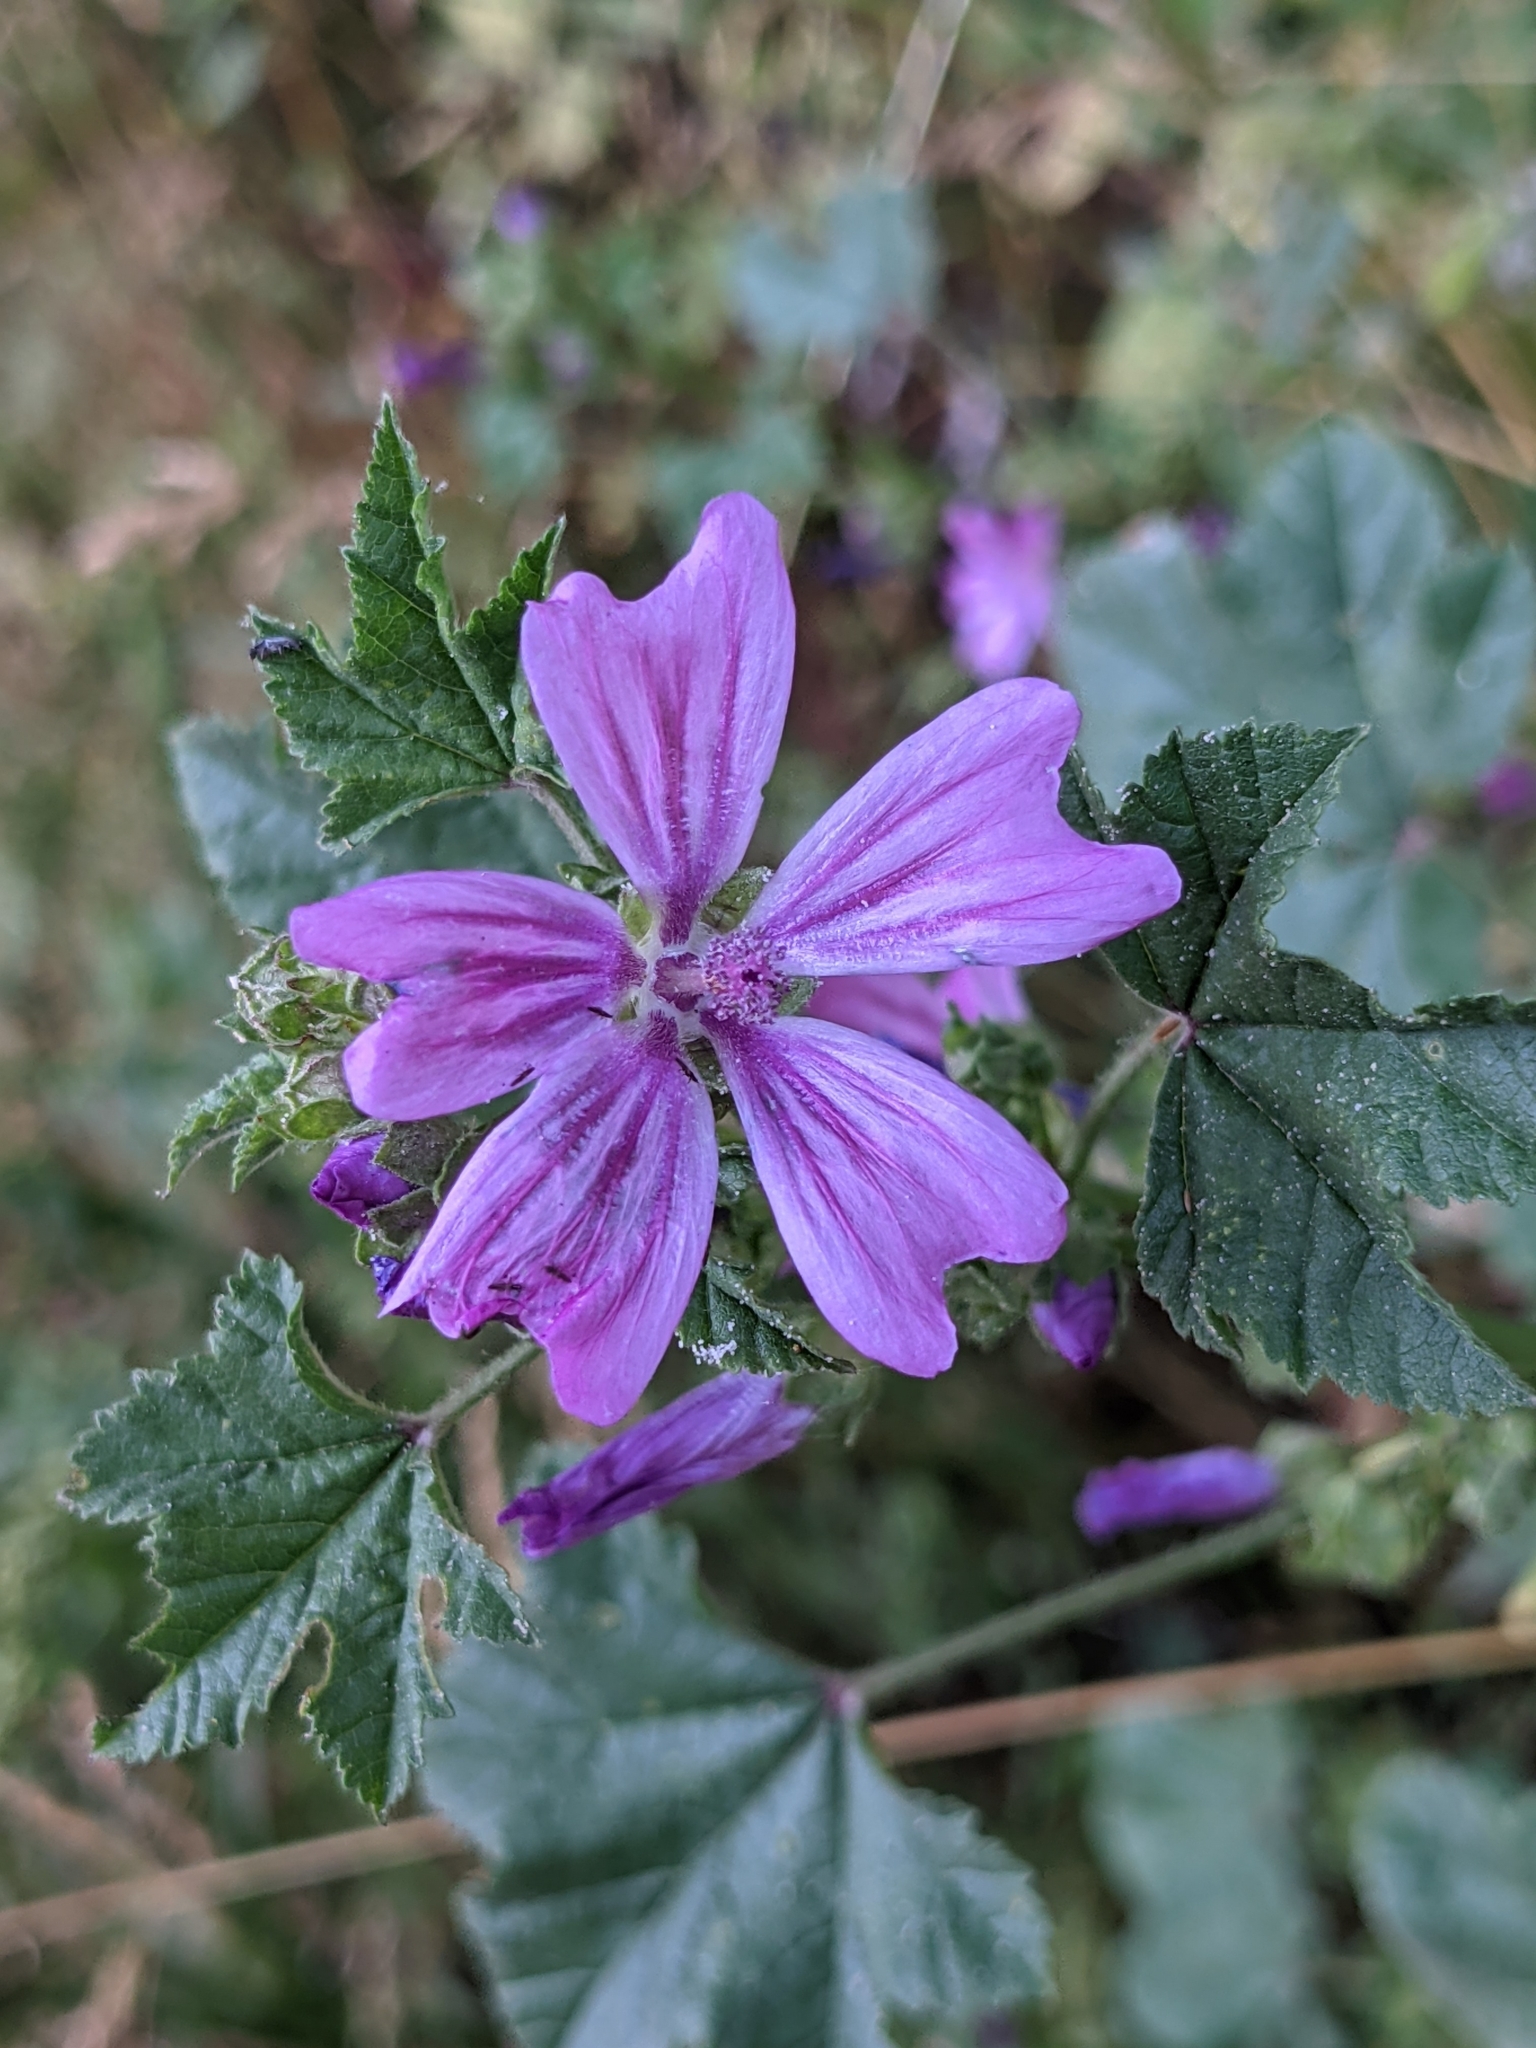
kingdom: Plantae
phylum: Tracheophyta
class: Magnoliopsida
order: Malvales
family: Malvaceae
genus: Malva
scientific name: Malva sylvestris
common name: Common mallow
